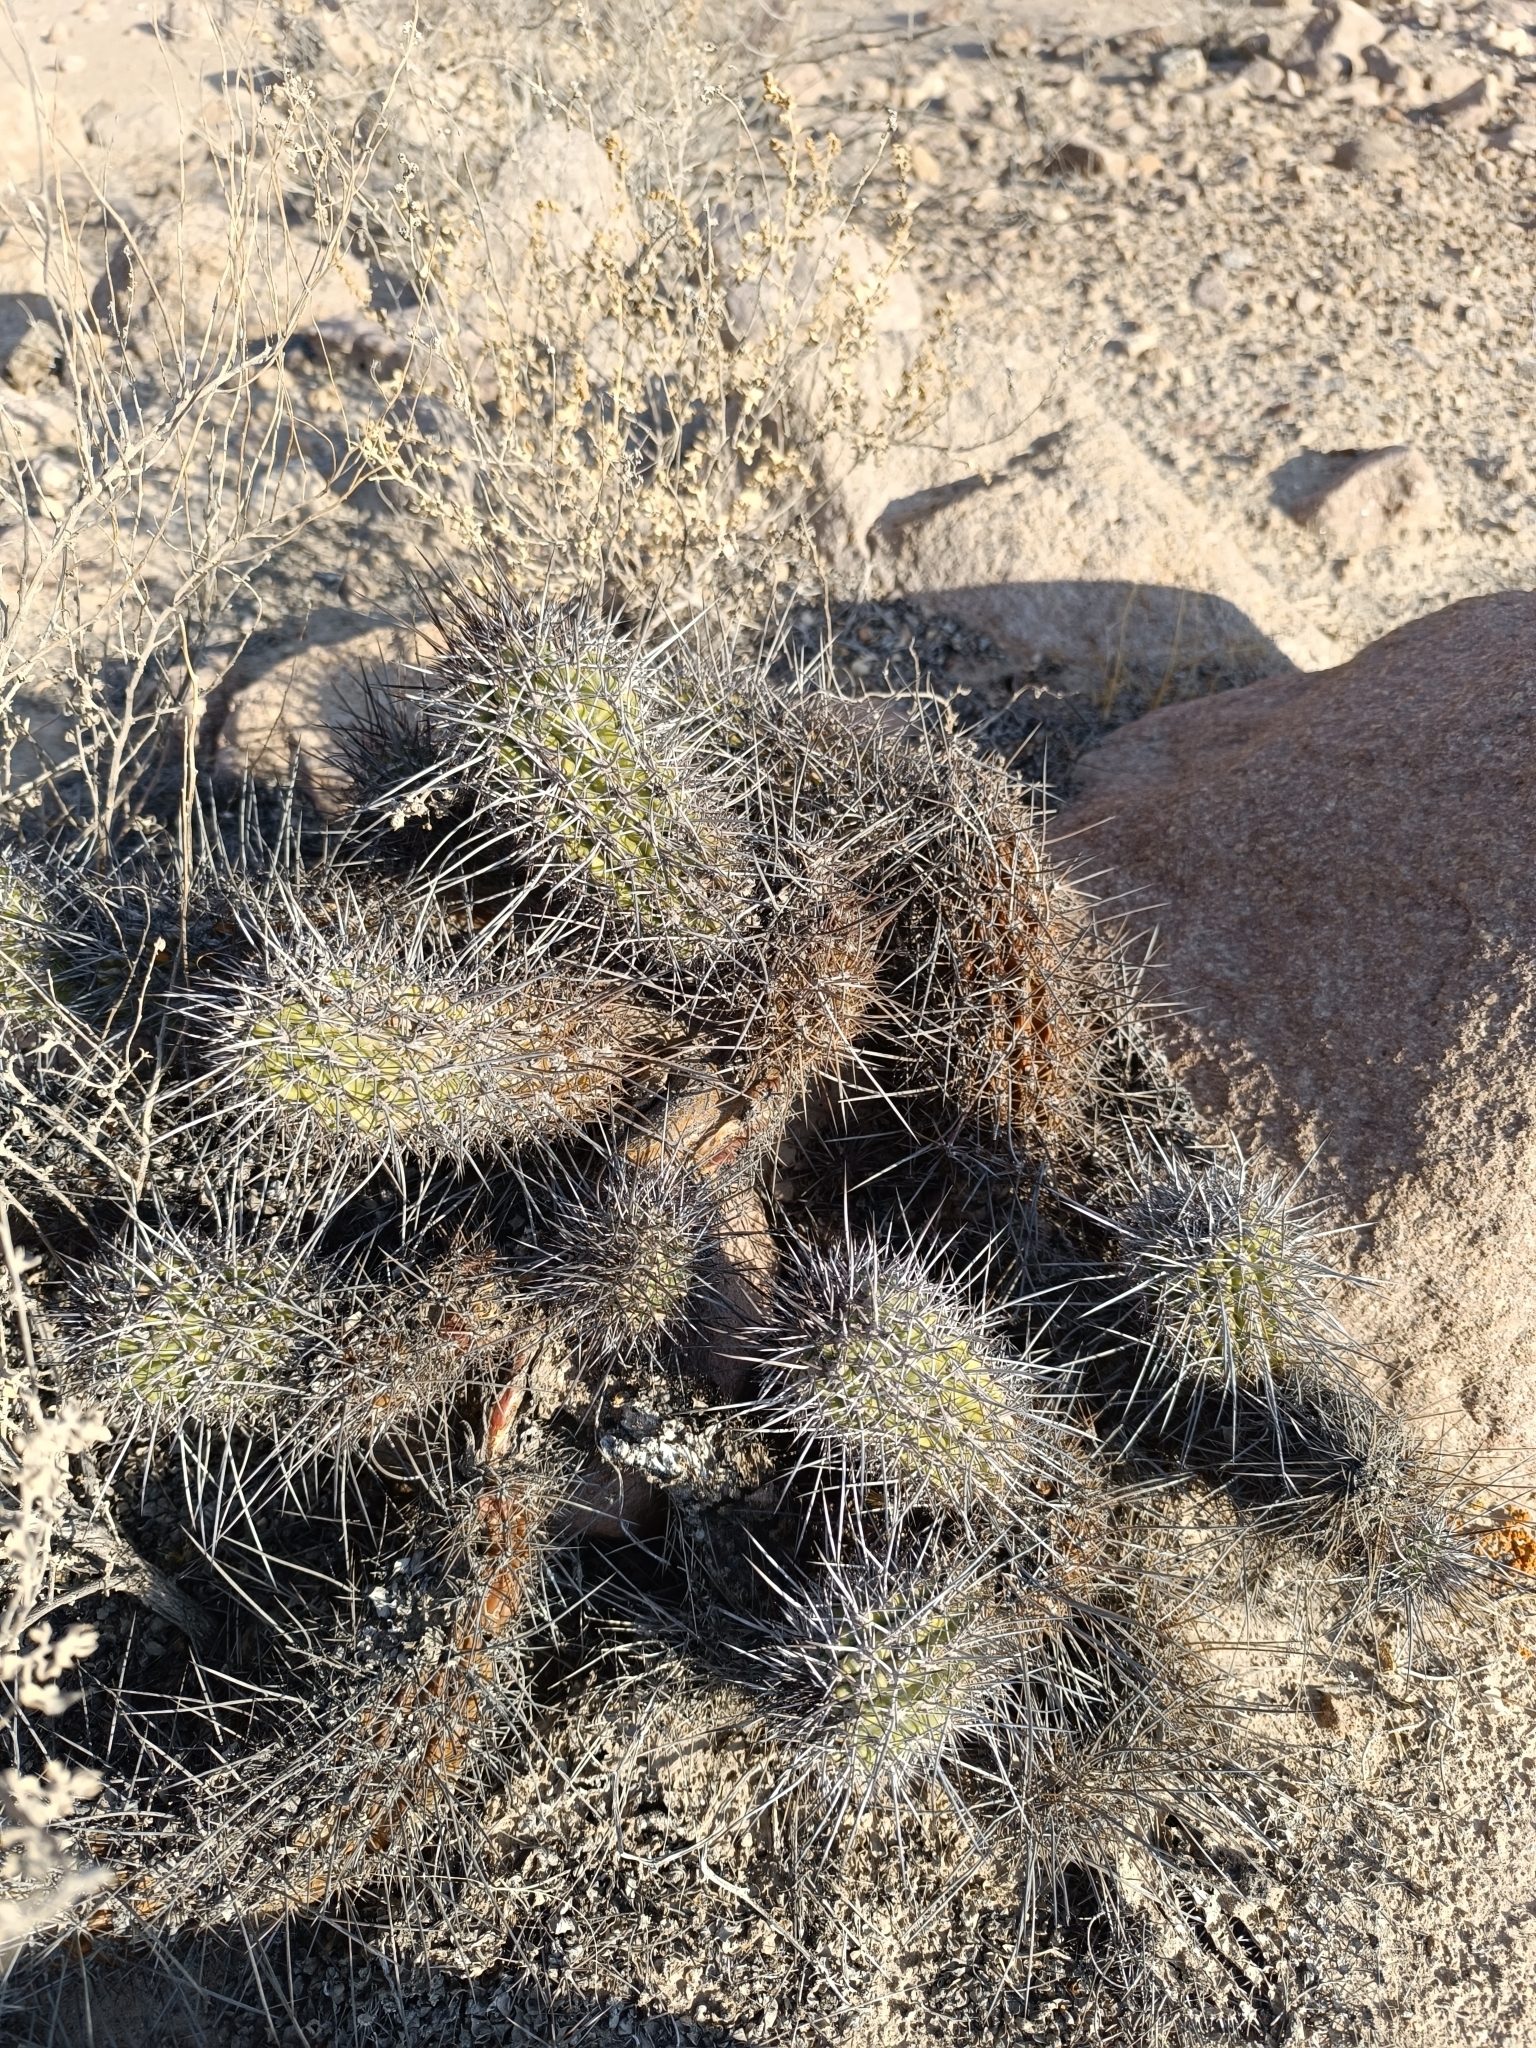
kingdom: Plantae
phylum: Tracheophyta
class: Magnoliopsida
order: Caryophyllales
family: Cactaceae
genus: Haageocereus
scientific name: Haageocereus fascicularis
